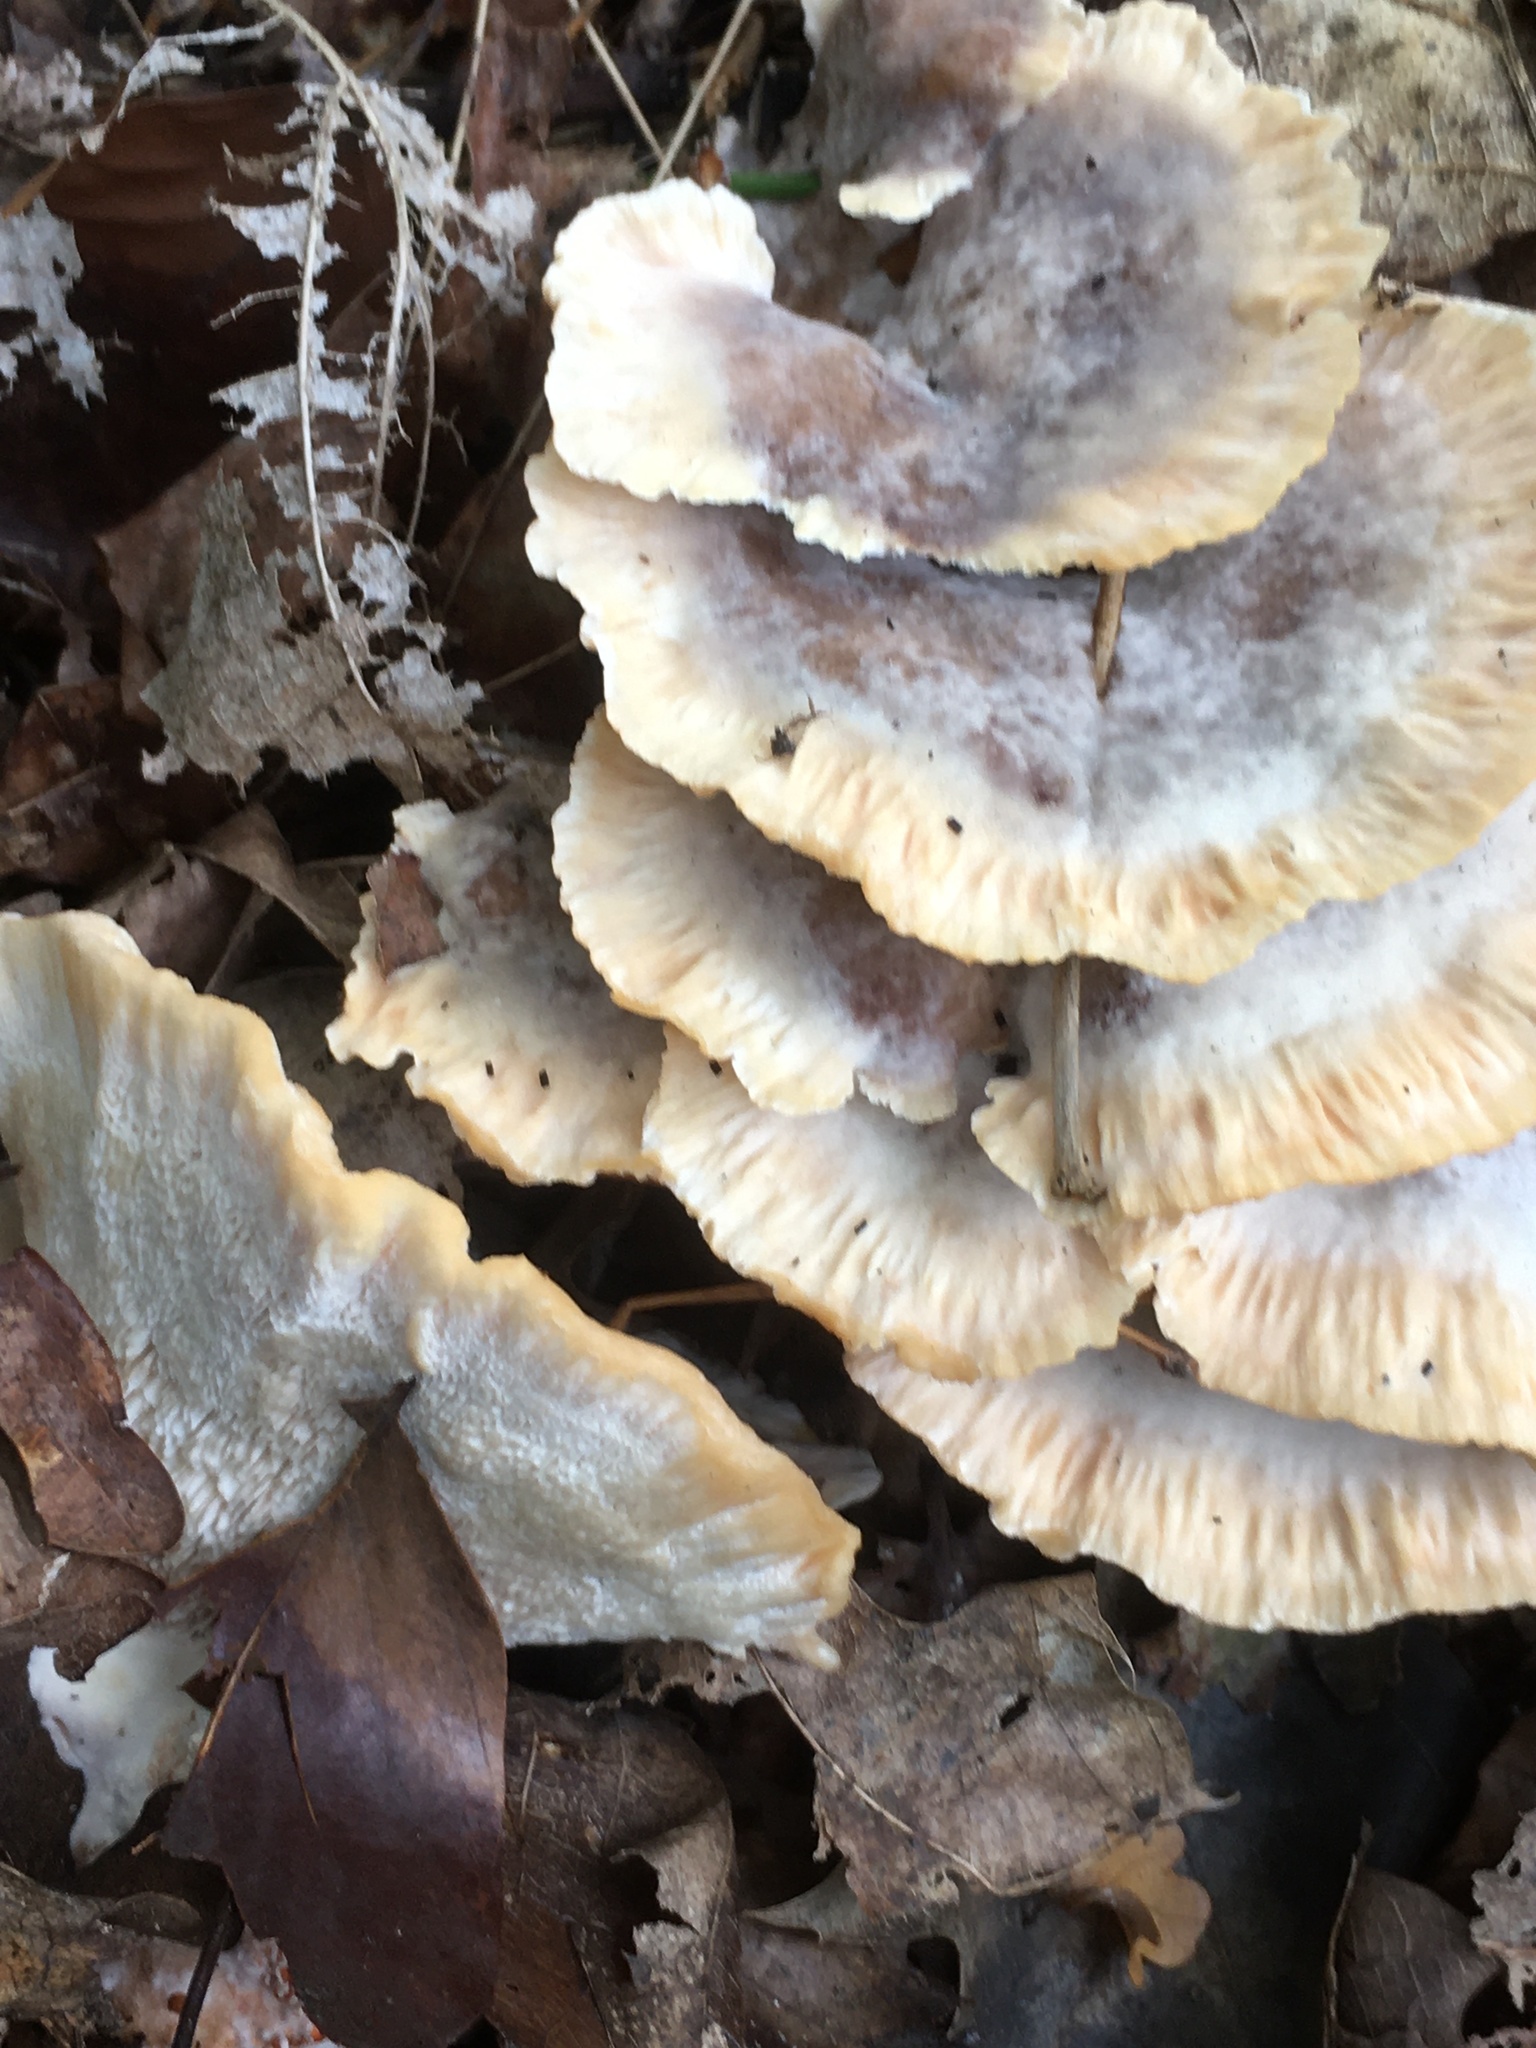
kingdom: Fungi
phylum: Basidiomycota
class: Agaricomycetes
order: Polyporales
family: Meripilaceae
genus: Meripilus
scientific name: Meripilus giganteus
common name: Giant polypore
